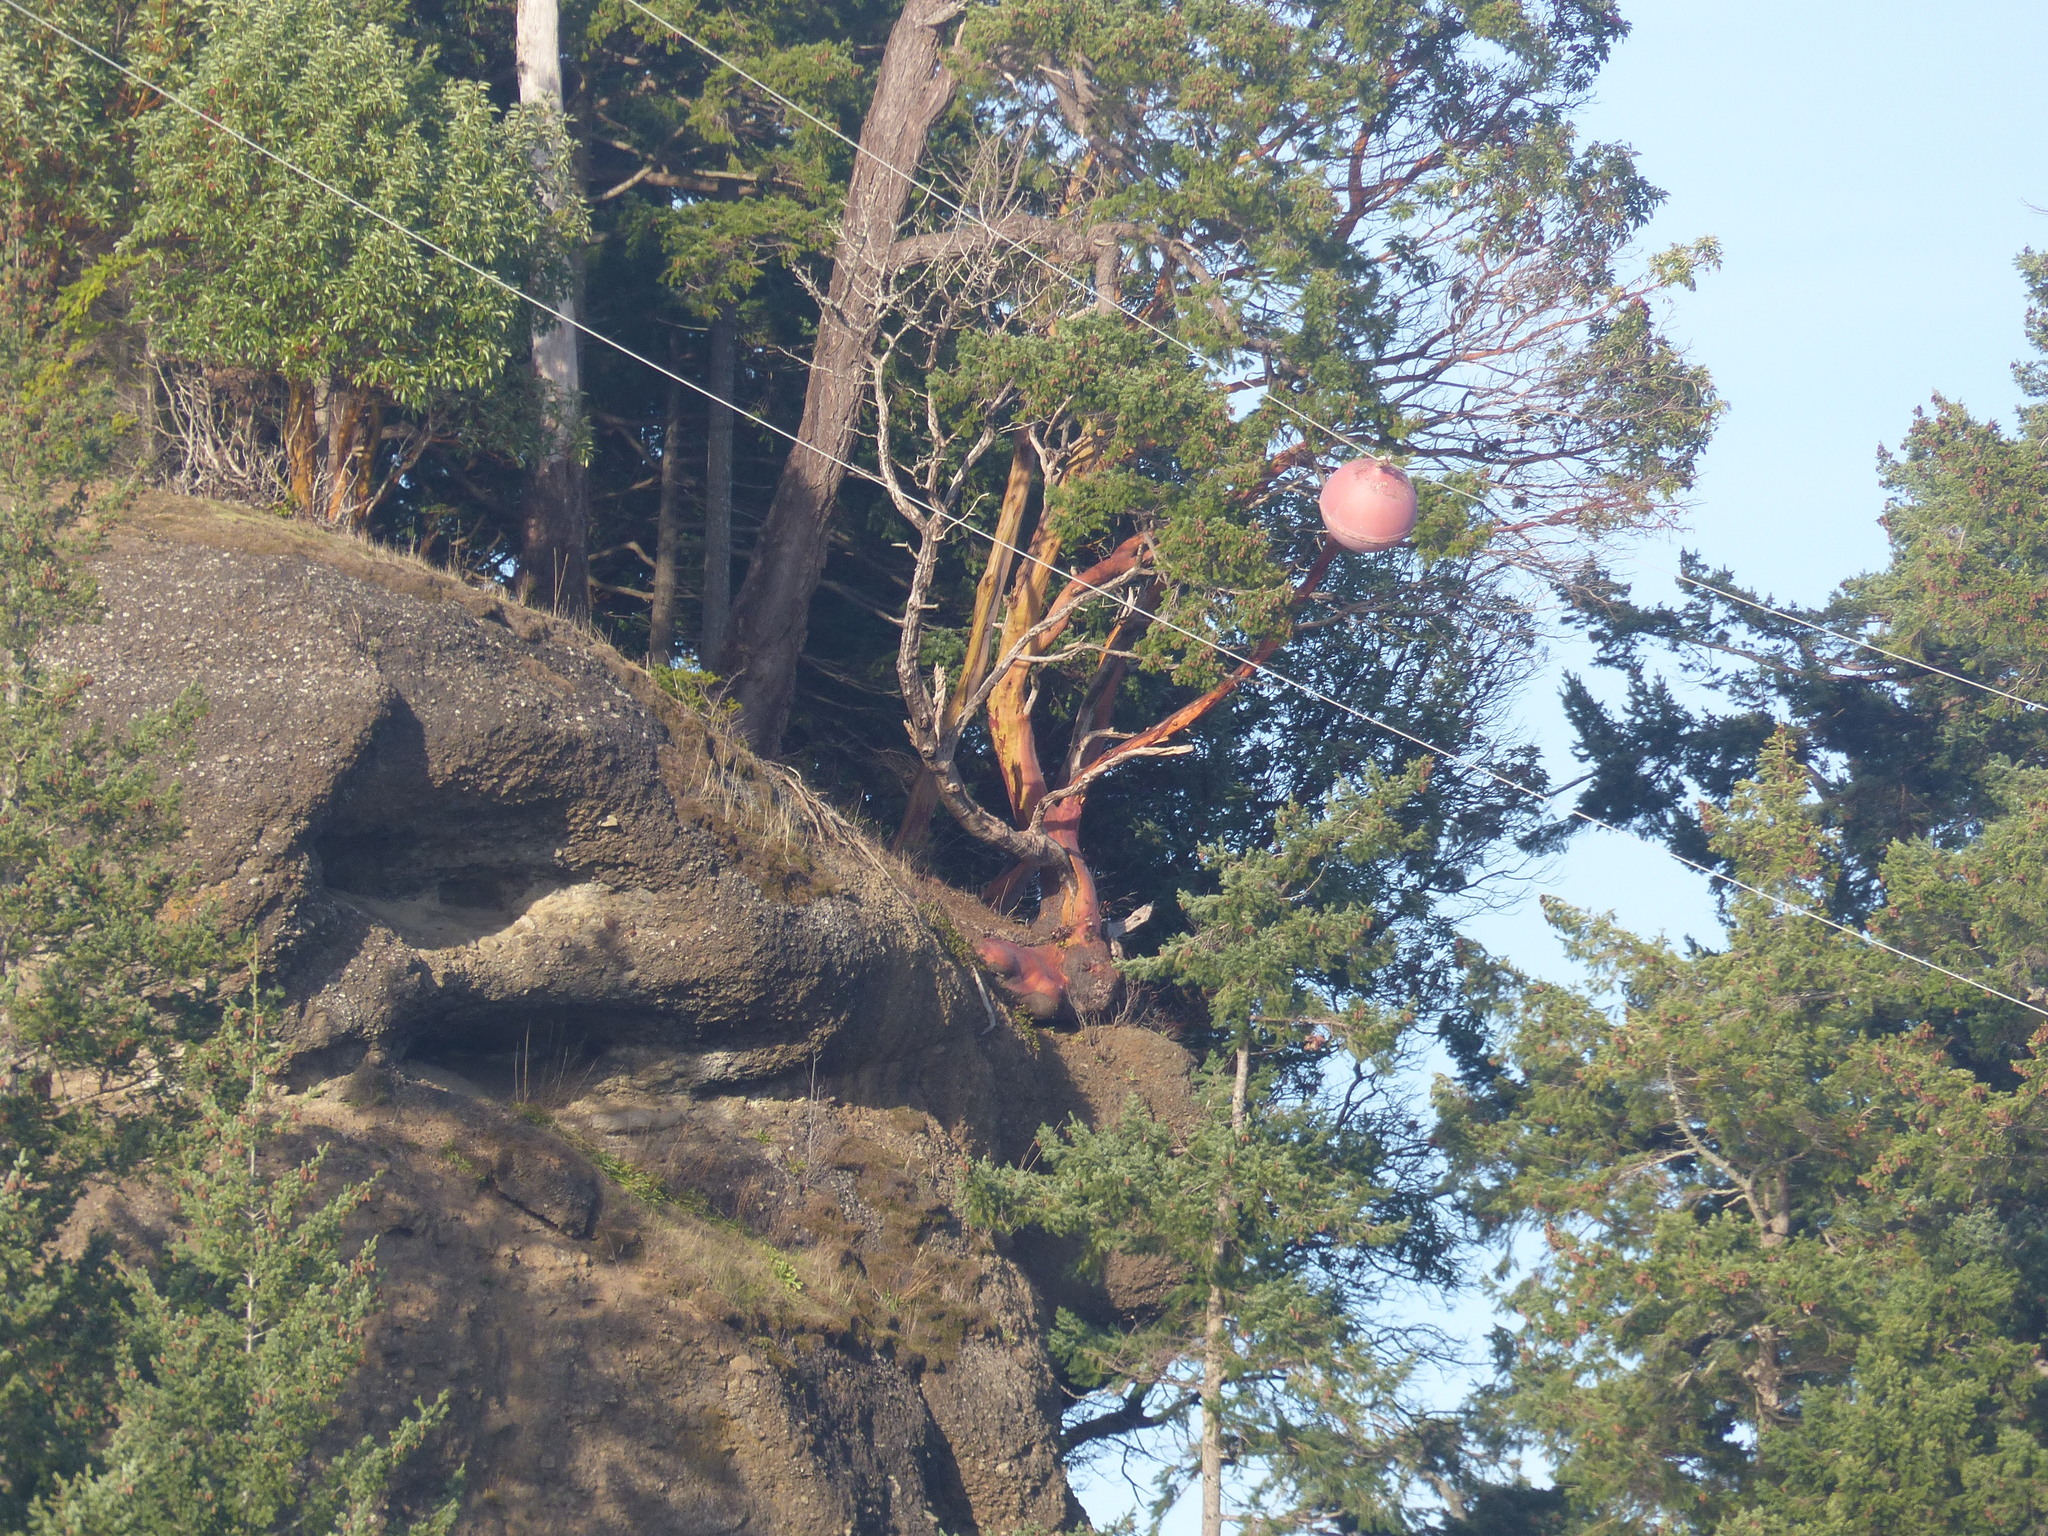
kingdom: Plantae
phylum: Tracheophyta
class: Magnoliopsida
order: Ericales
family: Ericaceae
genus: Arbutus
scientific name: Arbutus menziesii
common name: Pacific madrone
